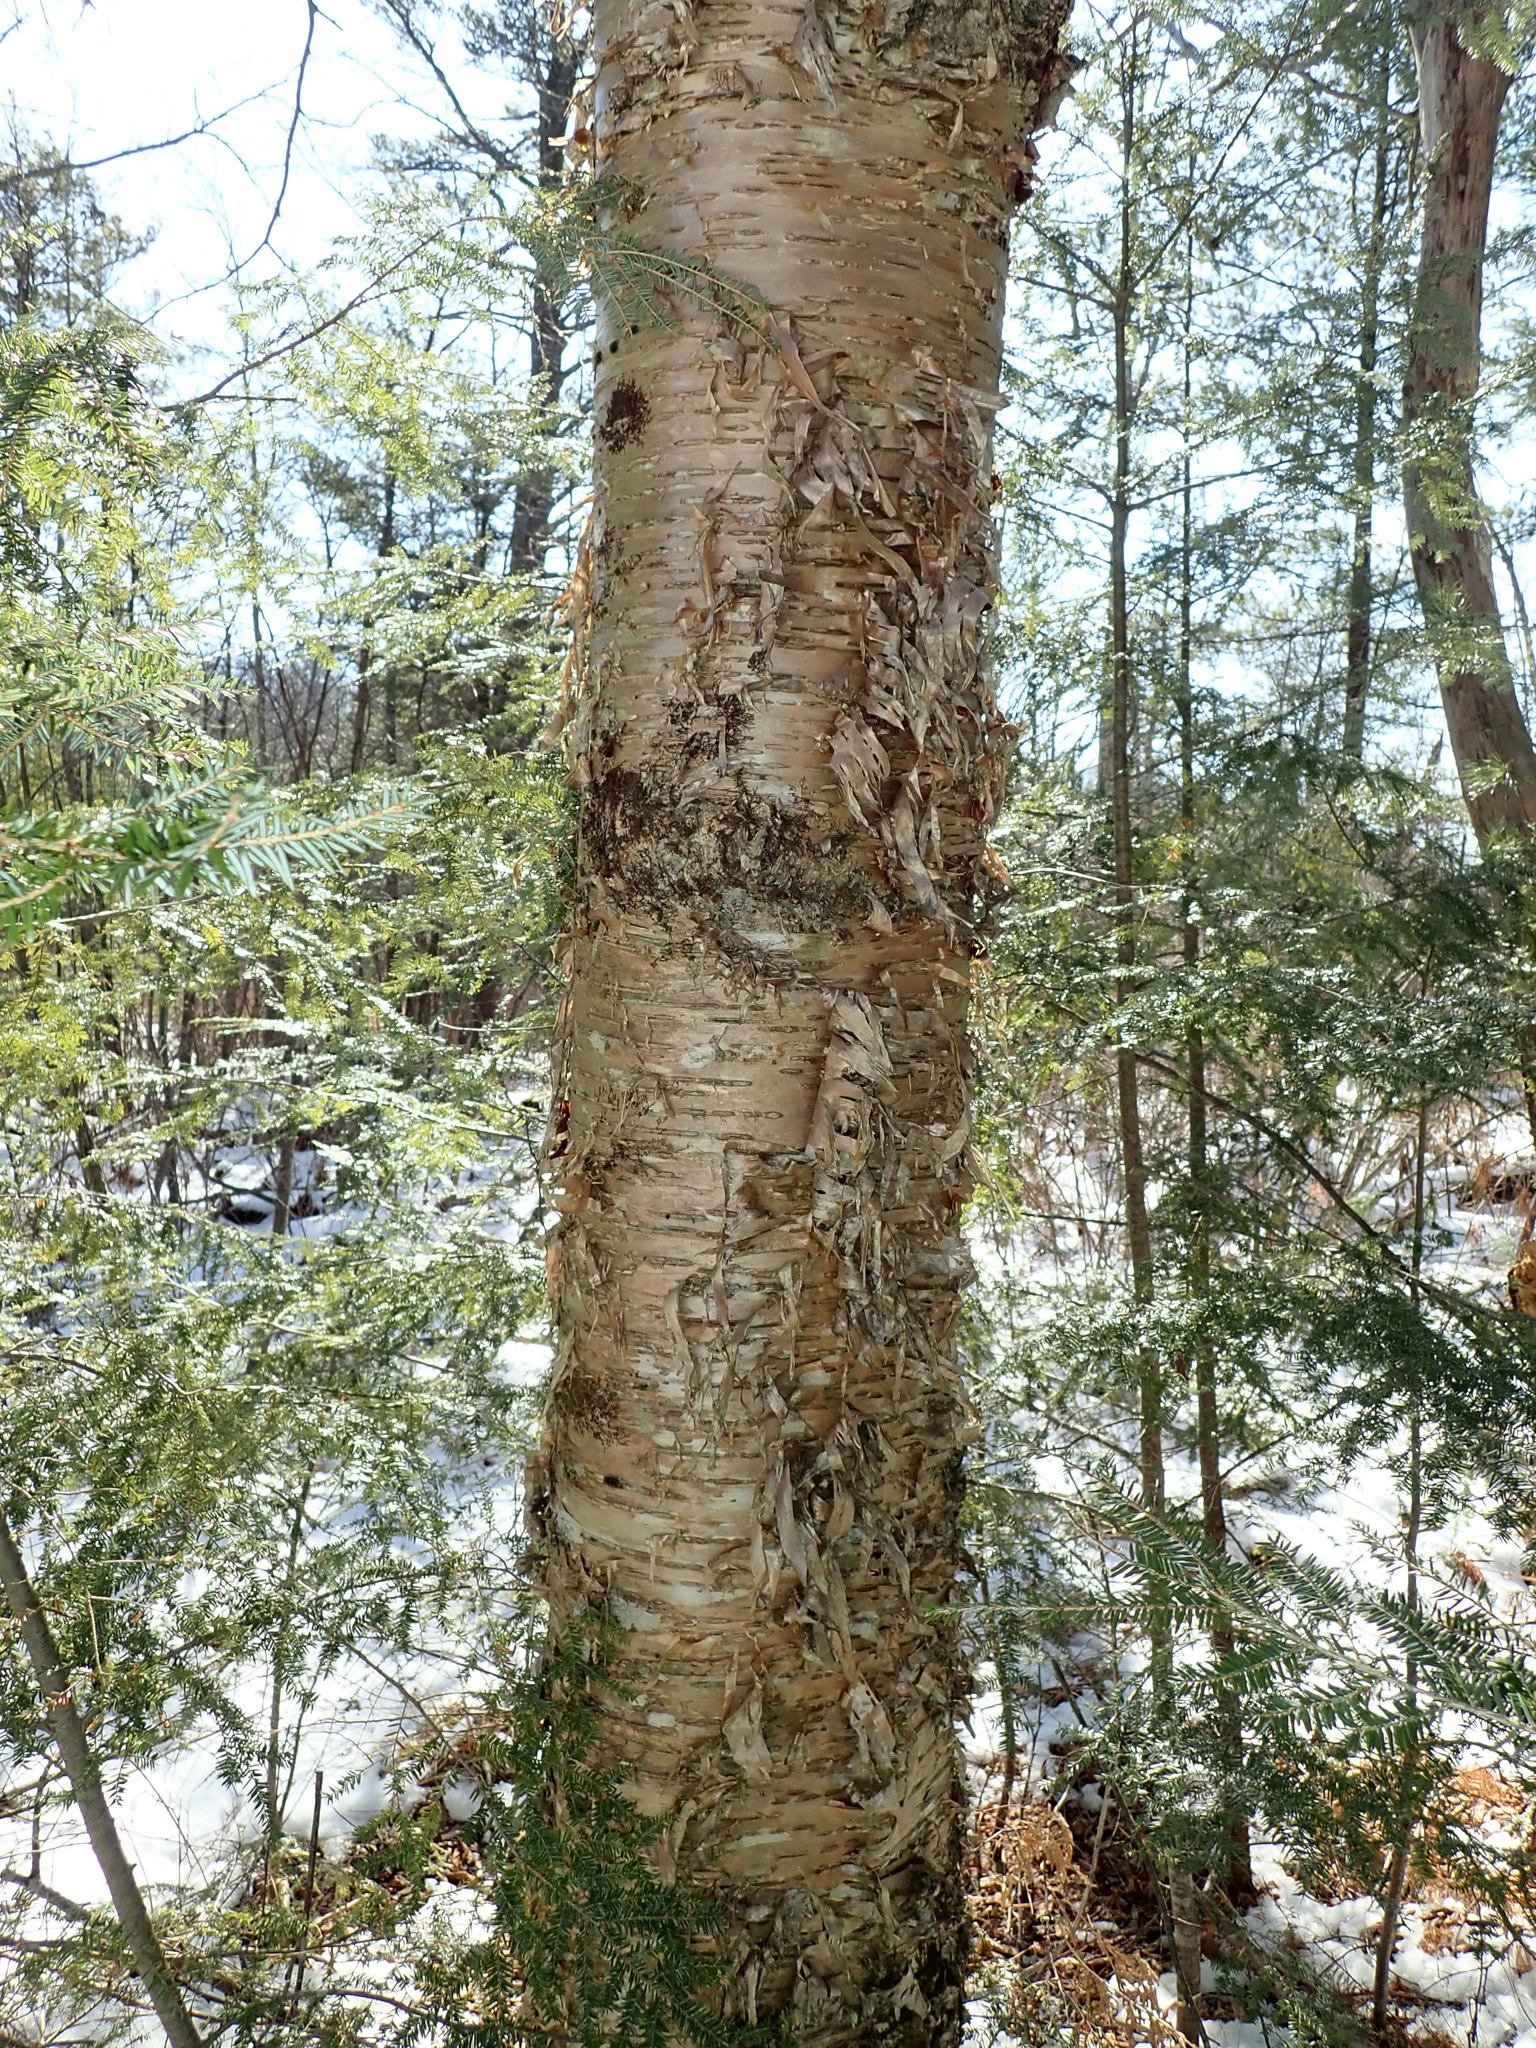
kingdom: Plantae
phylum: Tracheophyta
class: Magnoliopsida
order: Fagales
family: Betulaceae
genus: Betula
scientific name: Betula alleghaniensis
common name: Yellow birch
